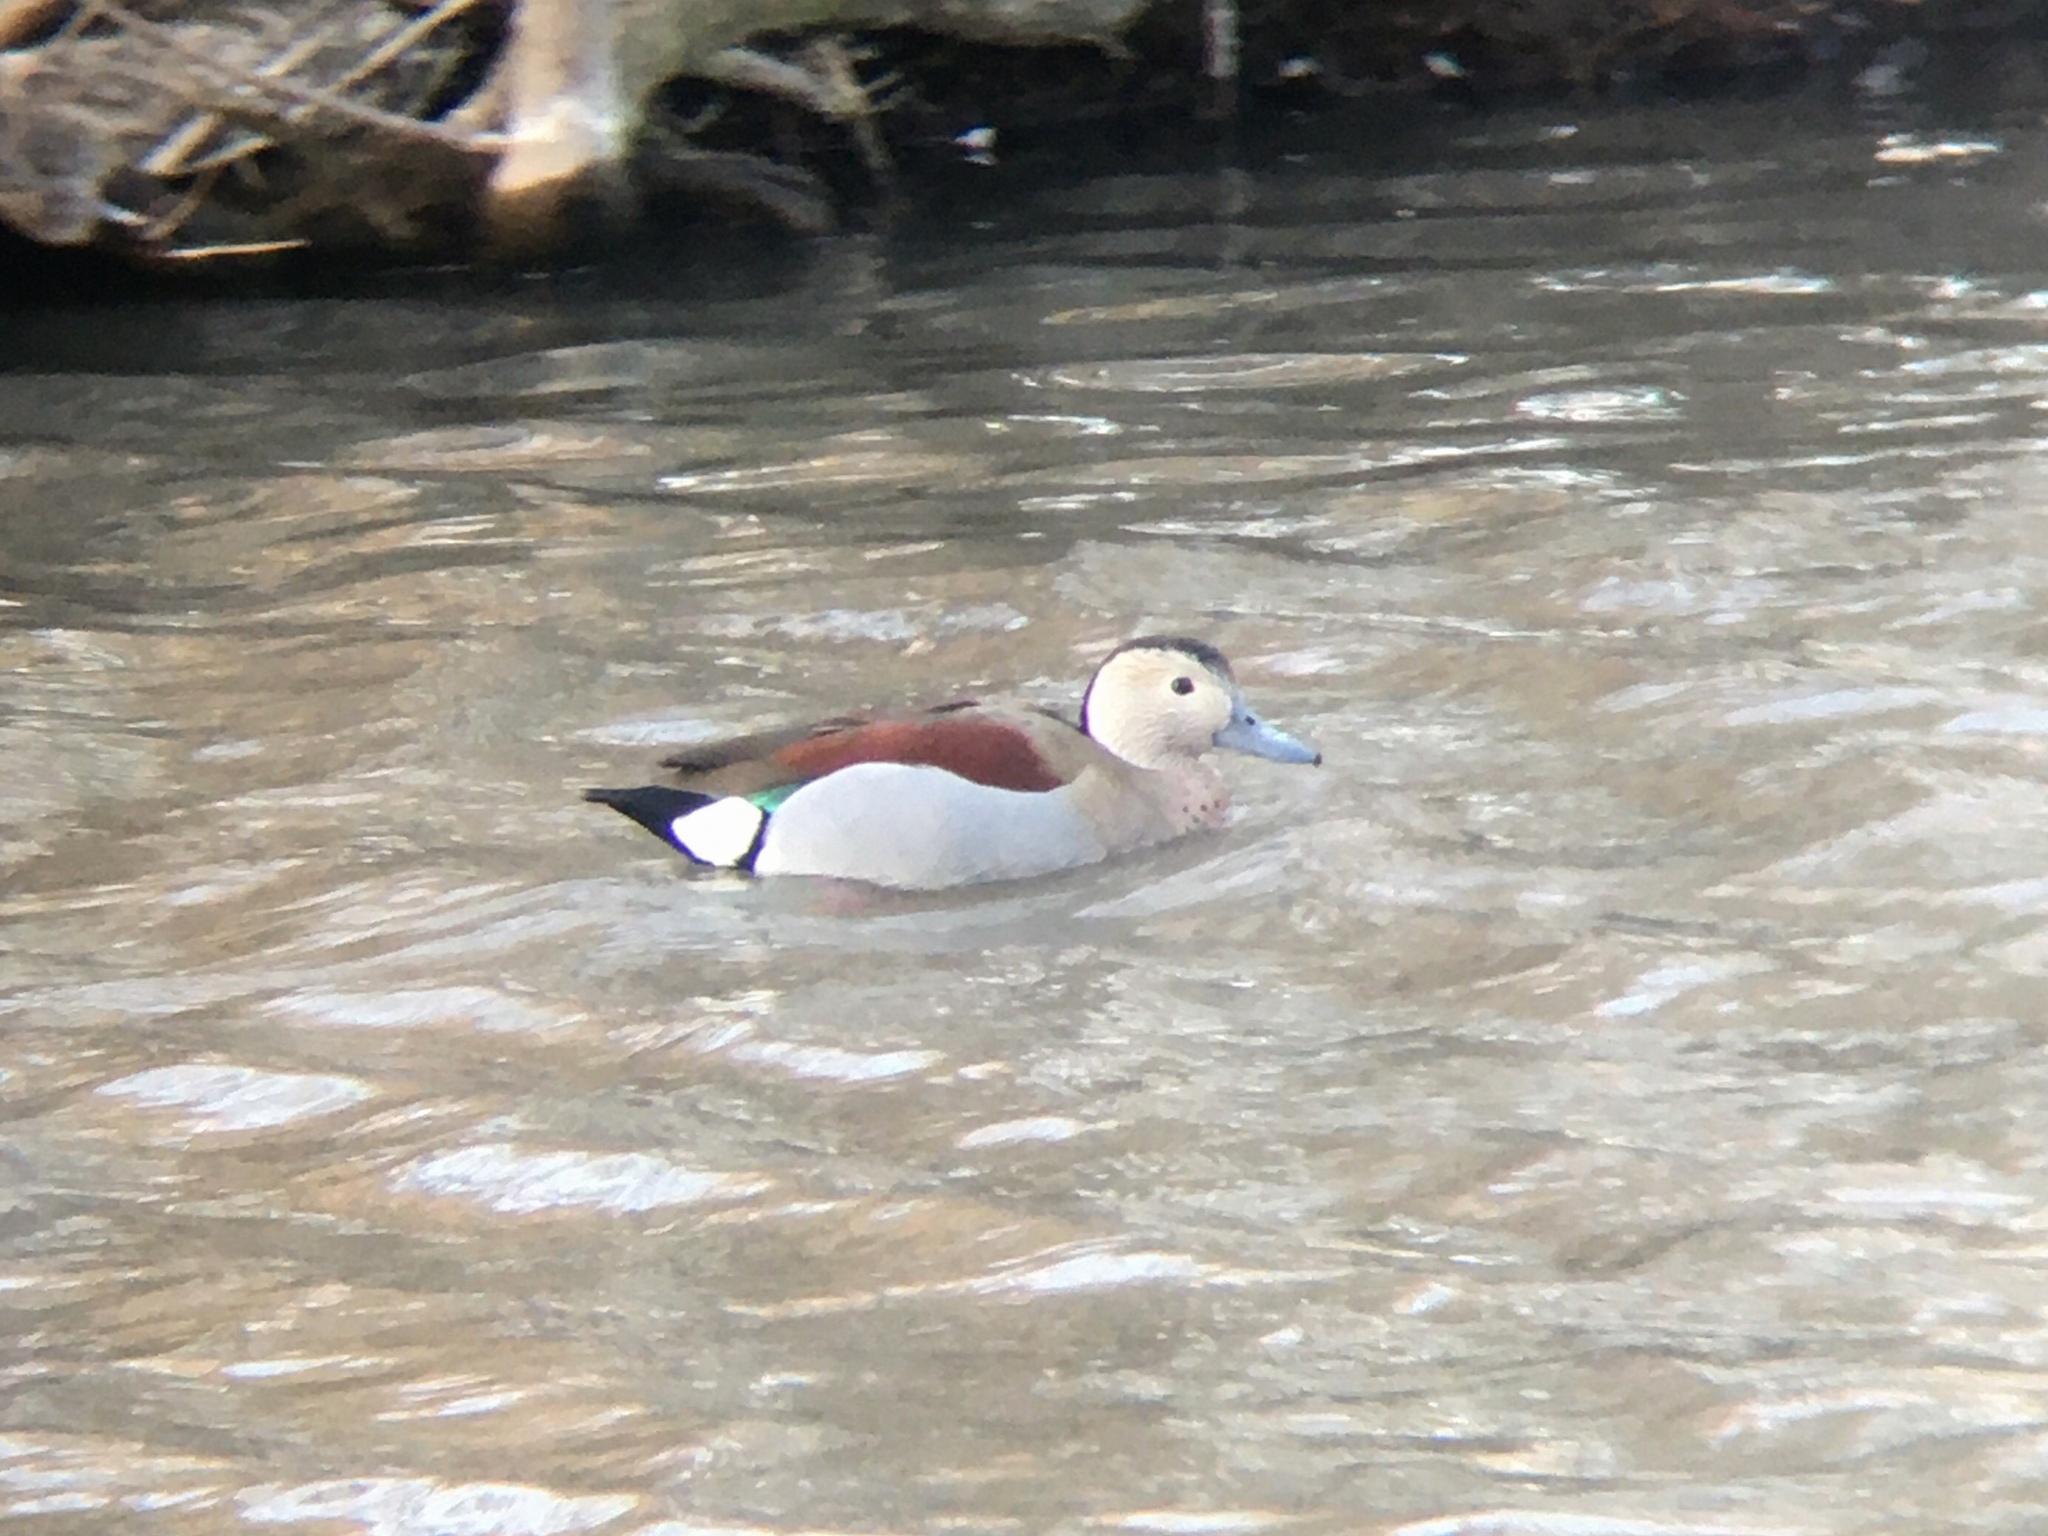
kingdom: Animalia
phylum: Chordata
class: Aves
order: Anseriformes
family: Anatidae
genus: Callonetta
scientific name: Callonetta leucophrys
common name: Ringed teal
